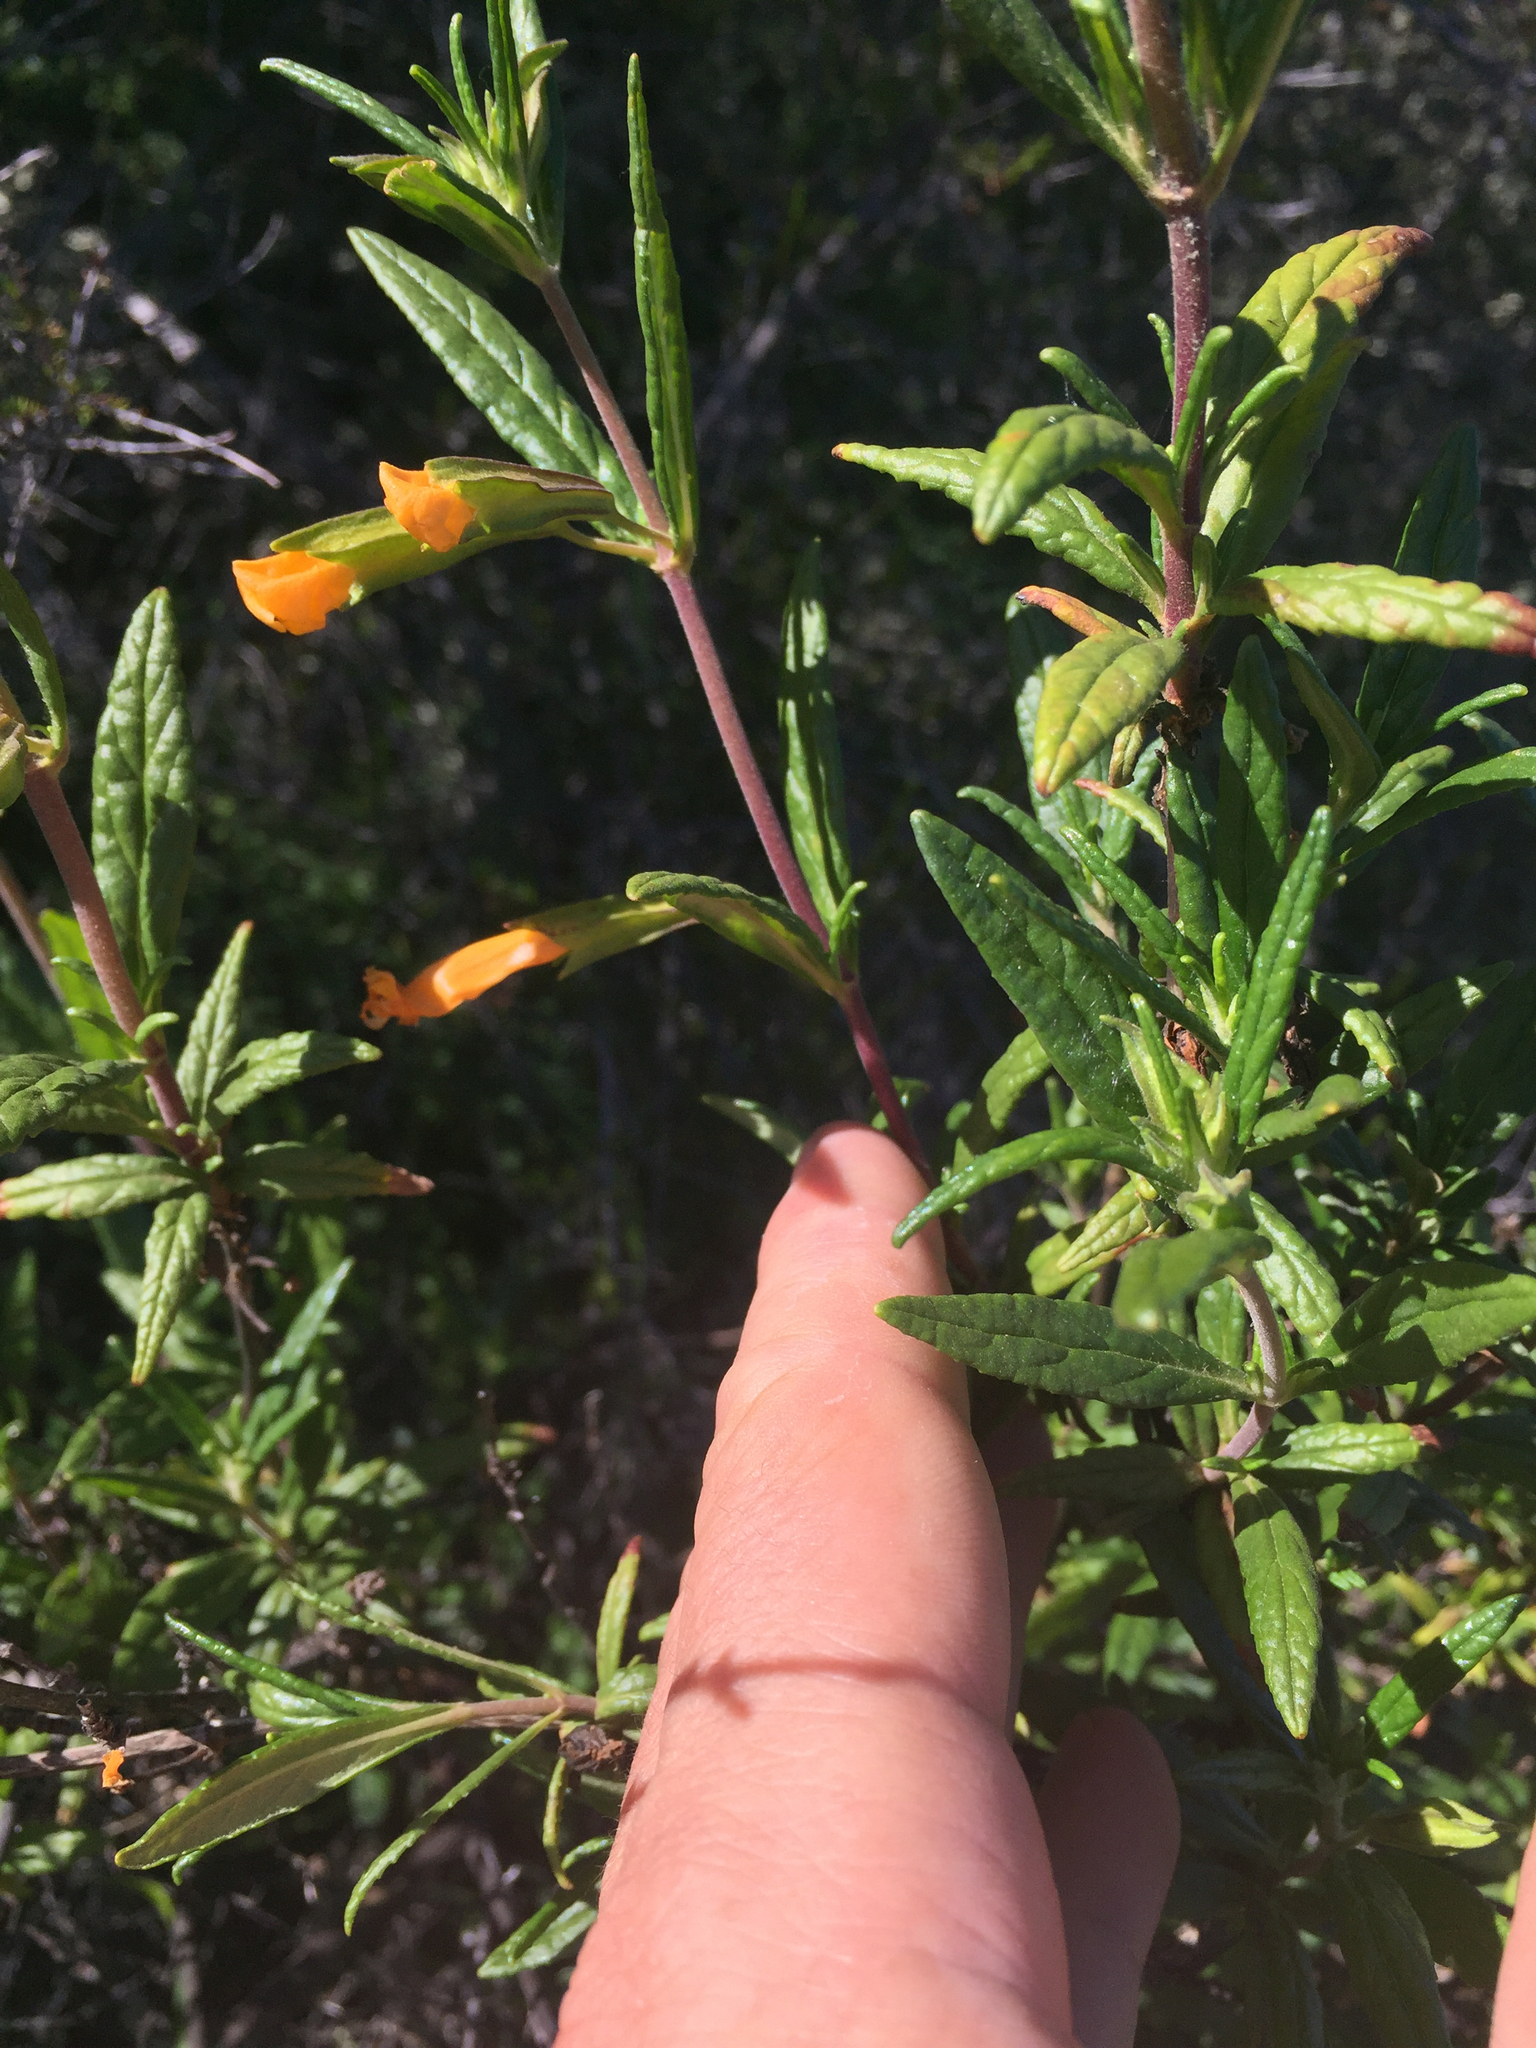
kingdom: Plantae
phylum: Tracheophyta
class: Magnoliopsida
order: Lamiales
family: Phrymaceae
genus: Diplacus
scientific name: Diplacus aurantiacus
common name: Bush monkey-flower
